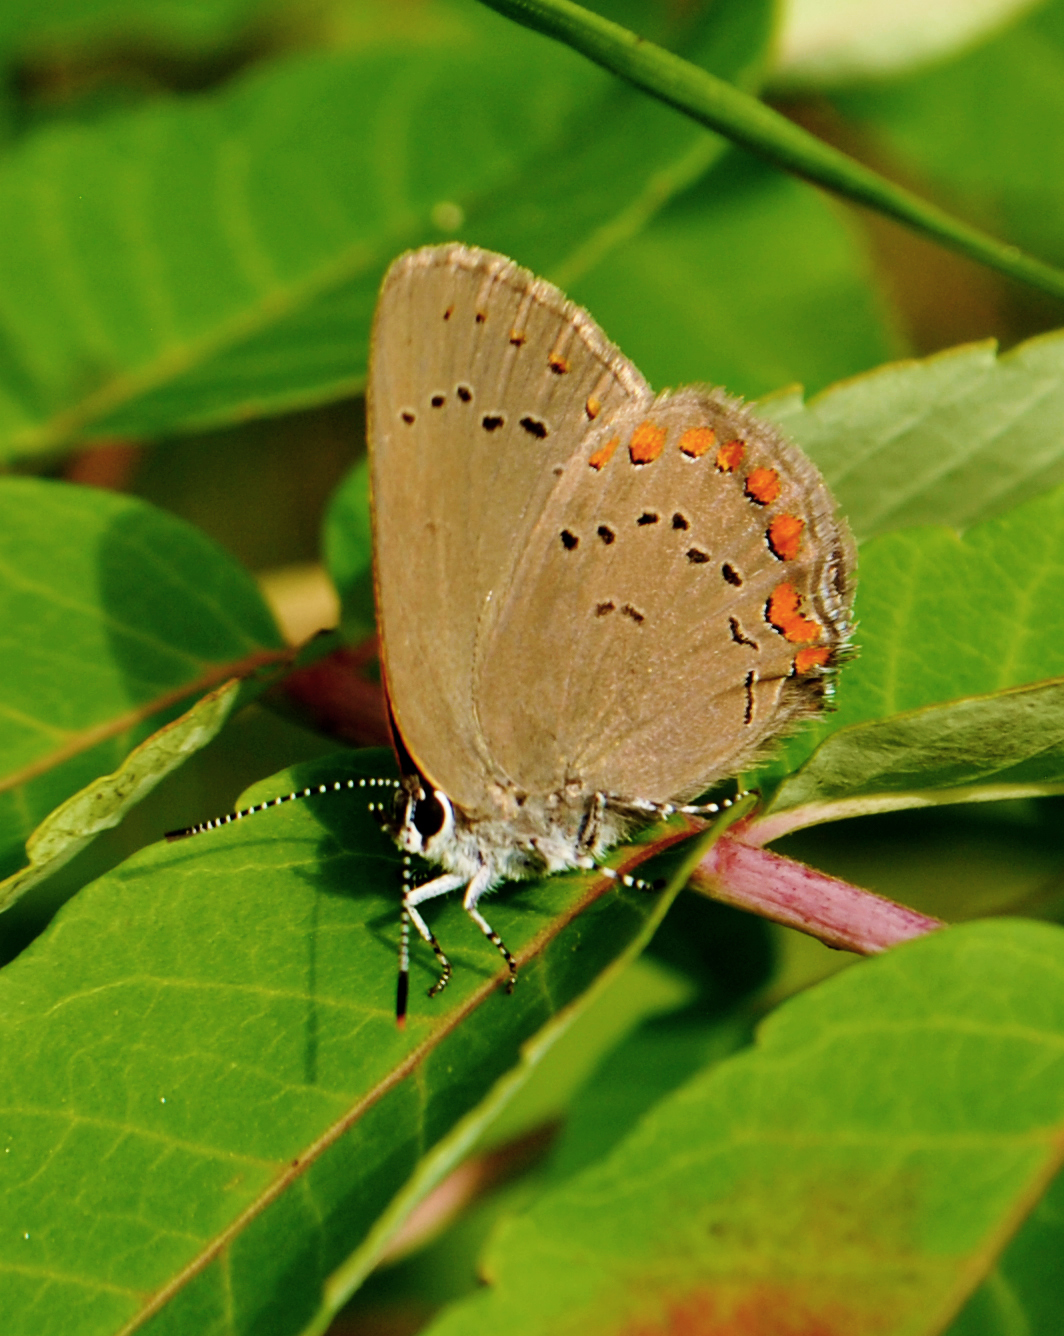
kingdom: Animalia
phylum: Arthropoda
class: Insecta
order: Lepidoptera
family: Lycaenidae
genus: Harkenclenus
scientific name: Harkenclenus titus
